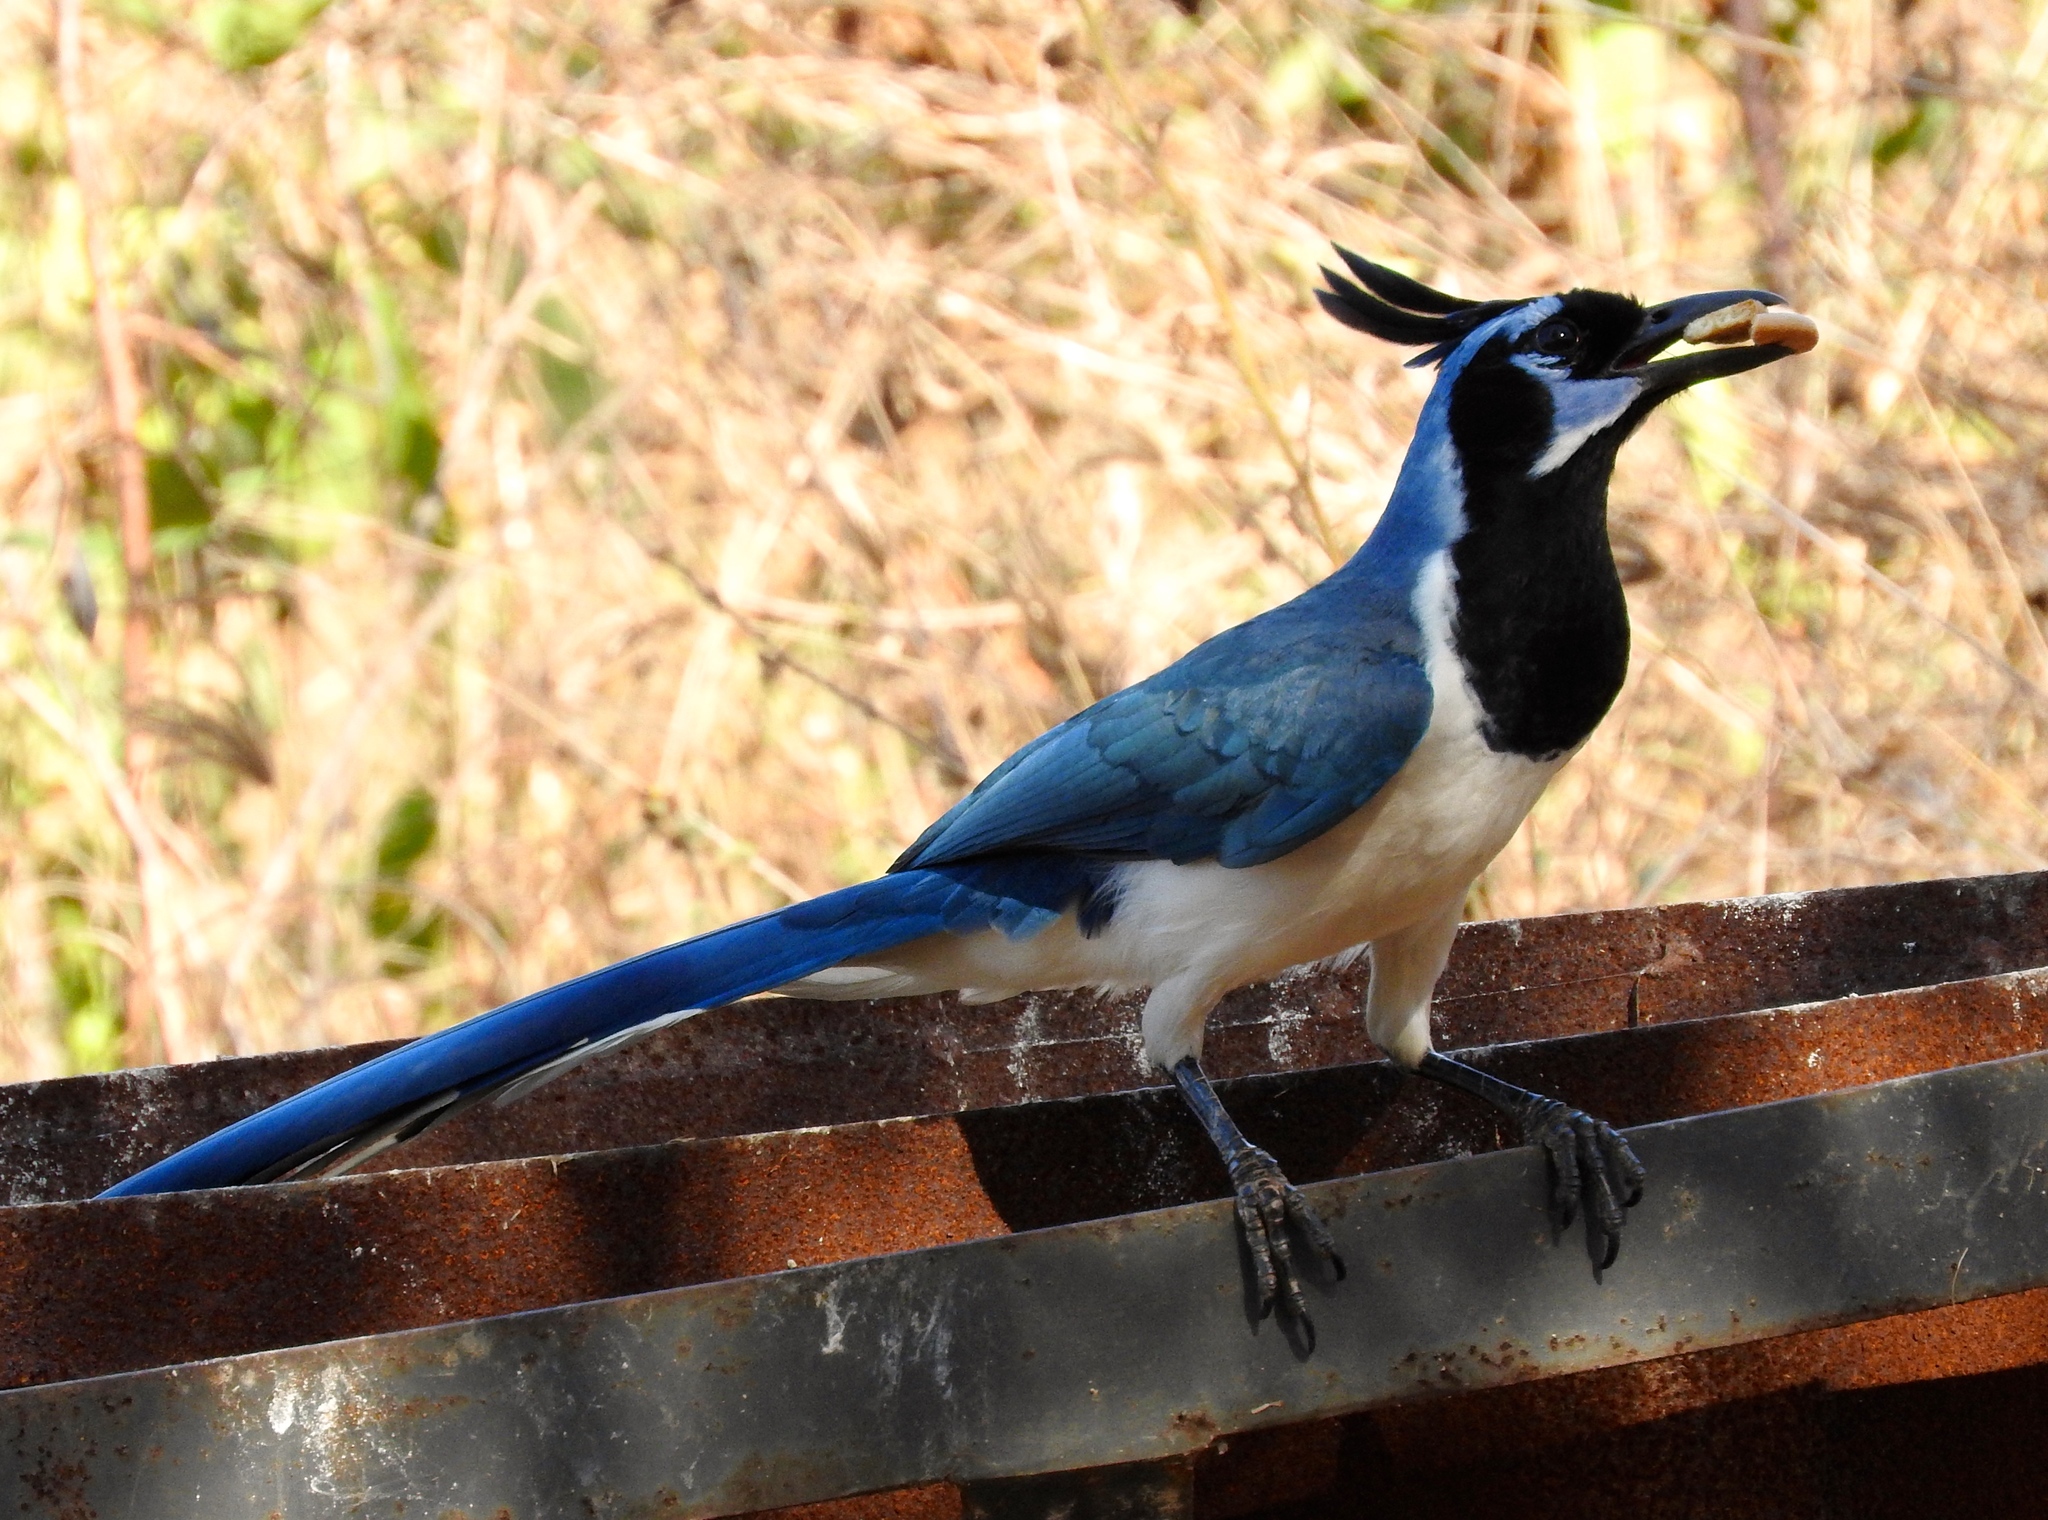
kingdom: Animalia
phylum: Chordata
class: Aves
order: Passeriformes
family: Corvidae
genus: Calocitta
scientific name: Calocitta colliei
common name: Black-throated magpie-jay
